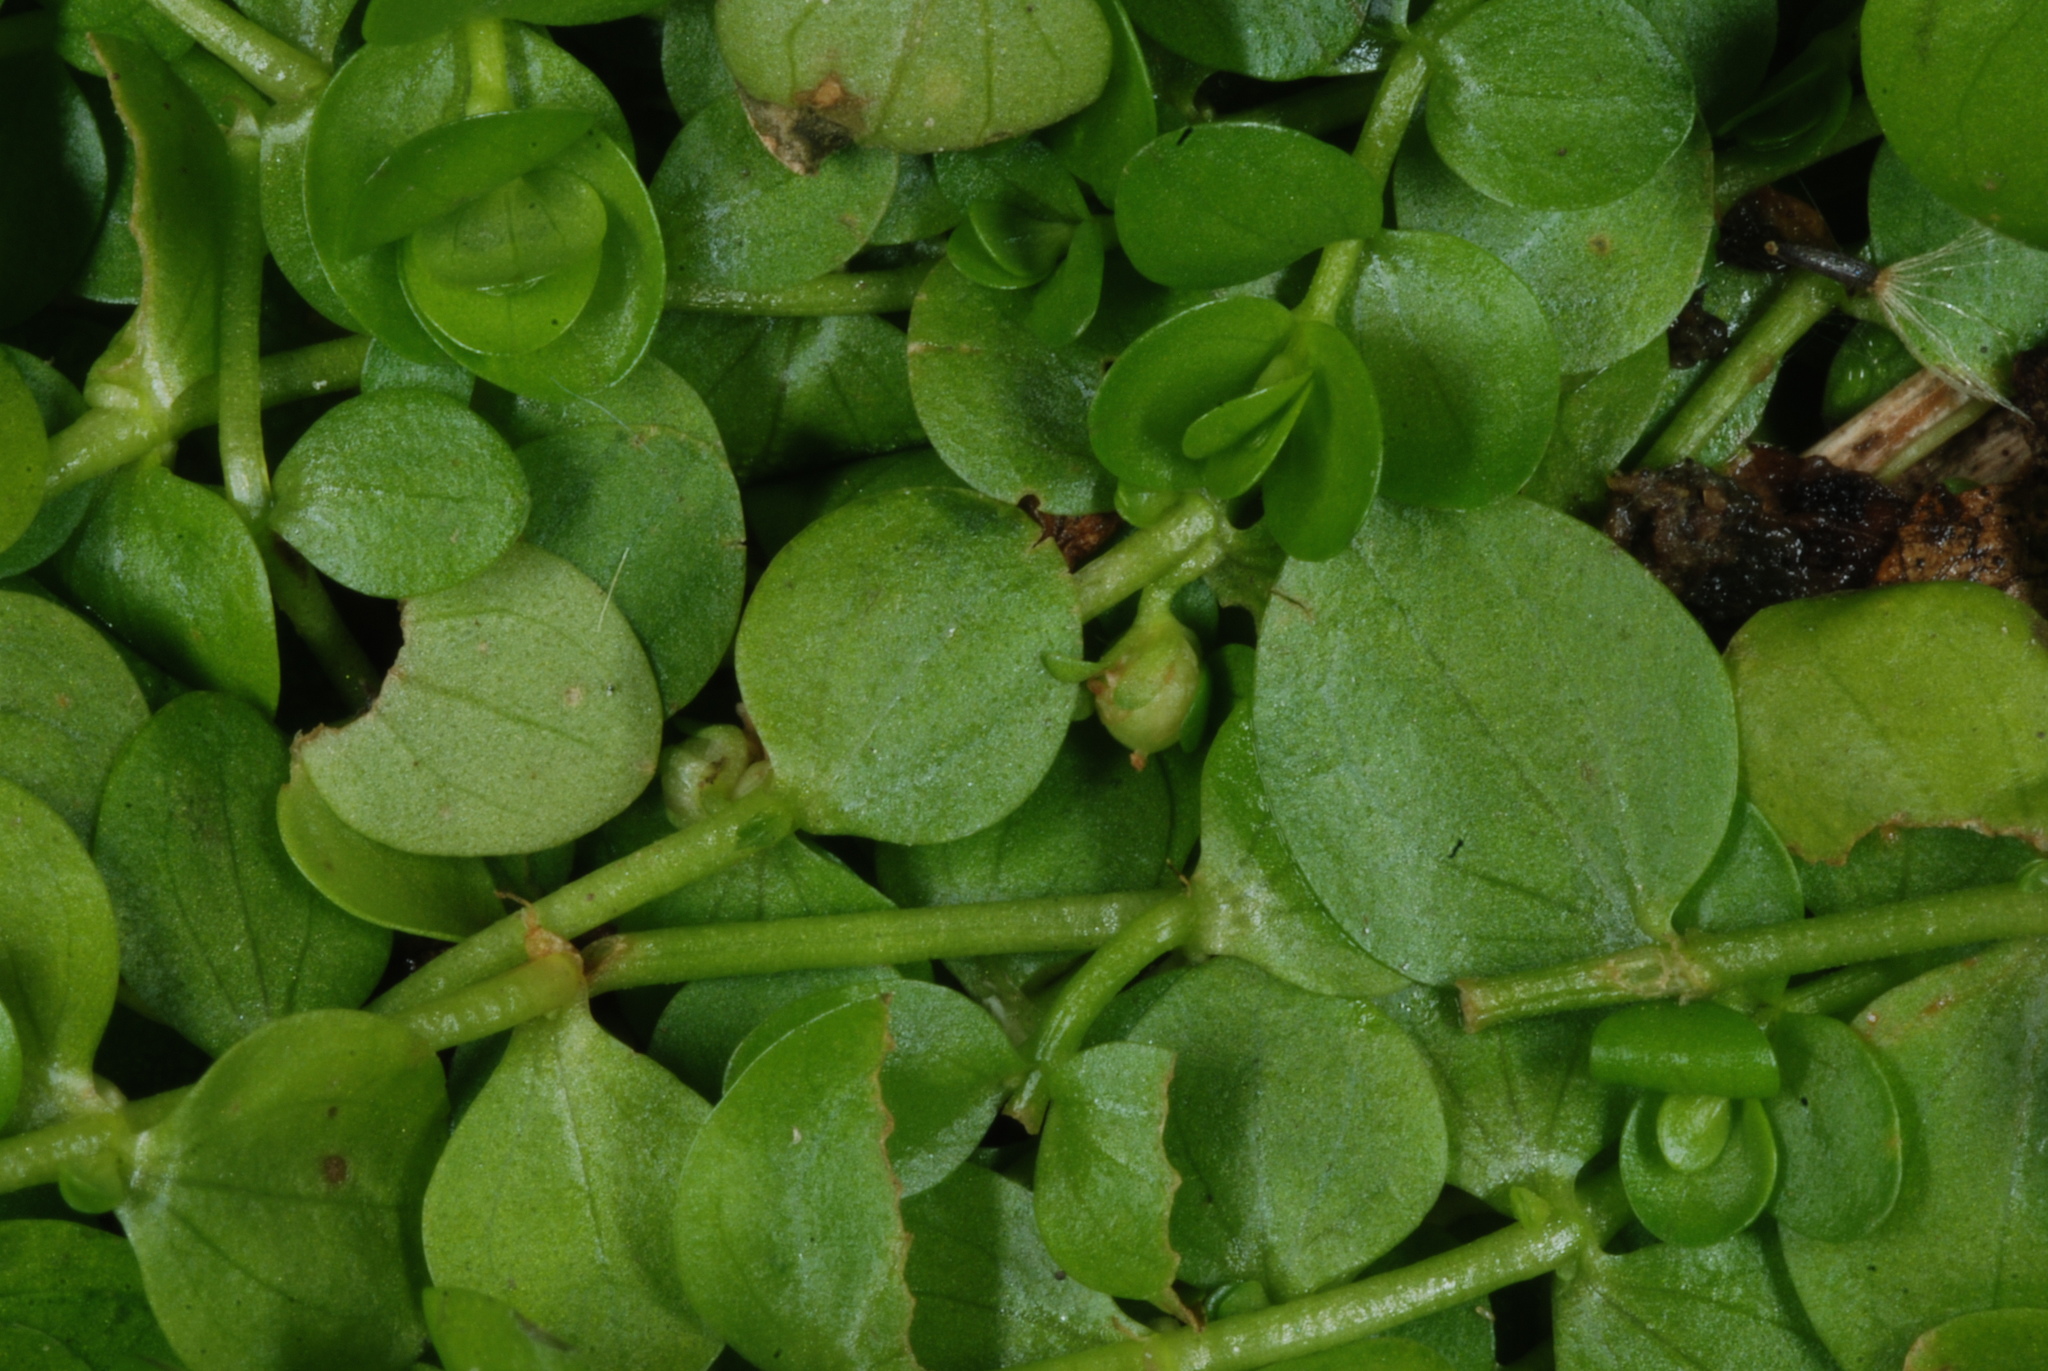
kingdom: Plantae
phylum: Tracheophyta
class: Magnoliopsida
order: Lamiales
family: Linderniaceae
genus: Micranthemum
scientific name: Micranthemum umbrosum
